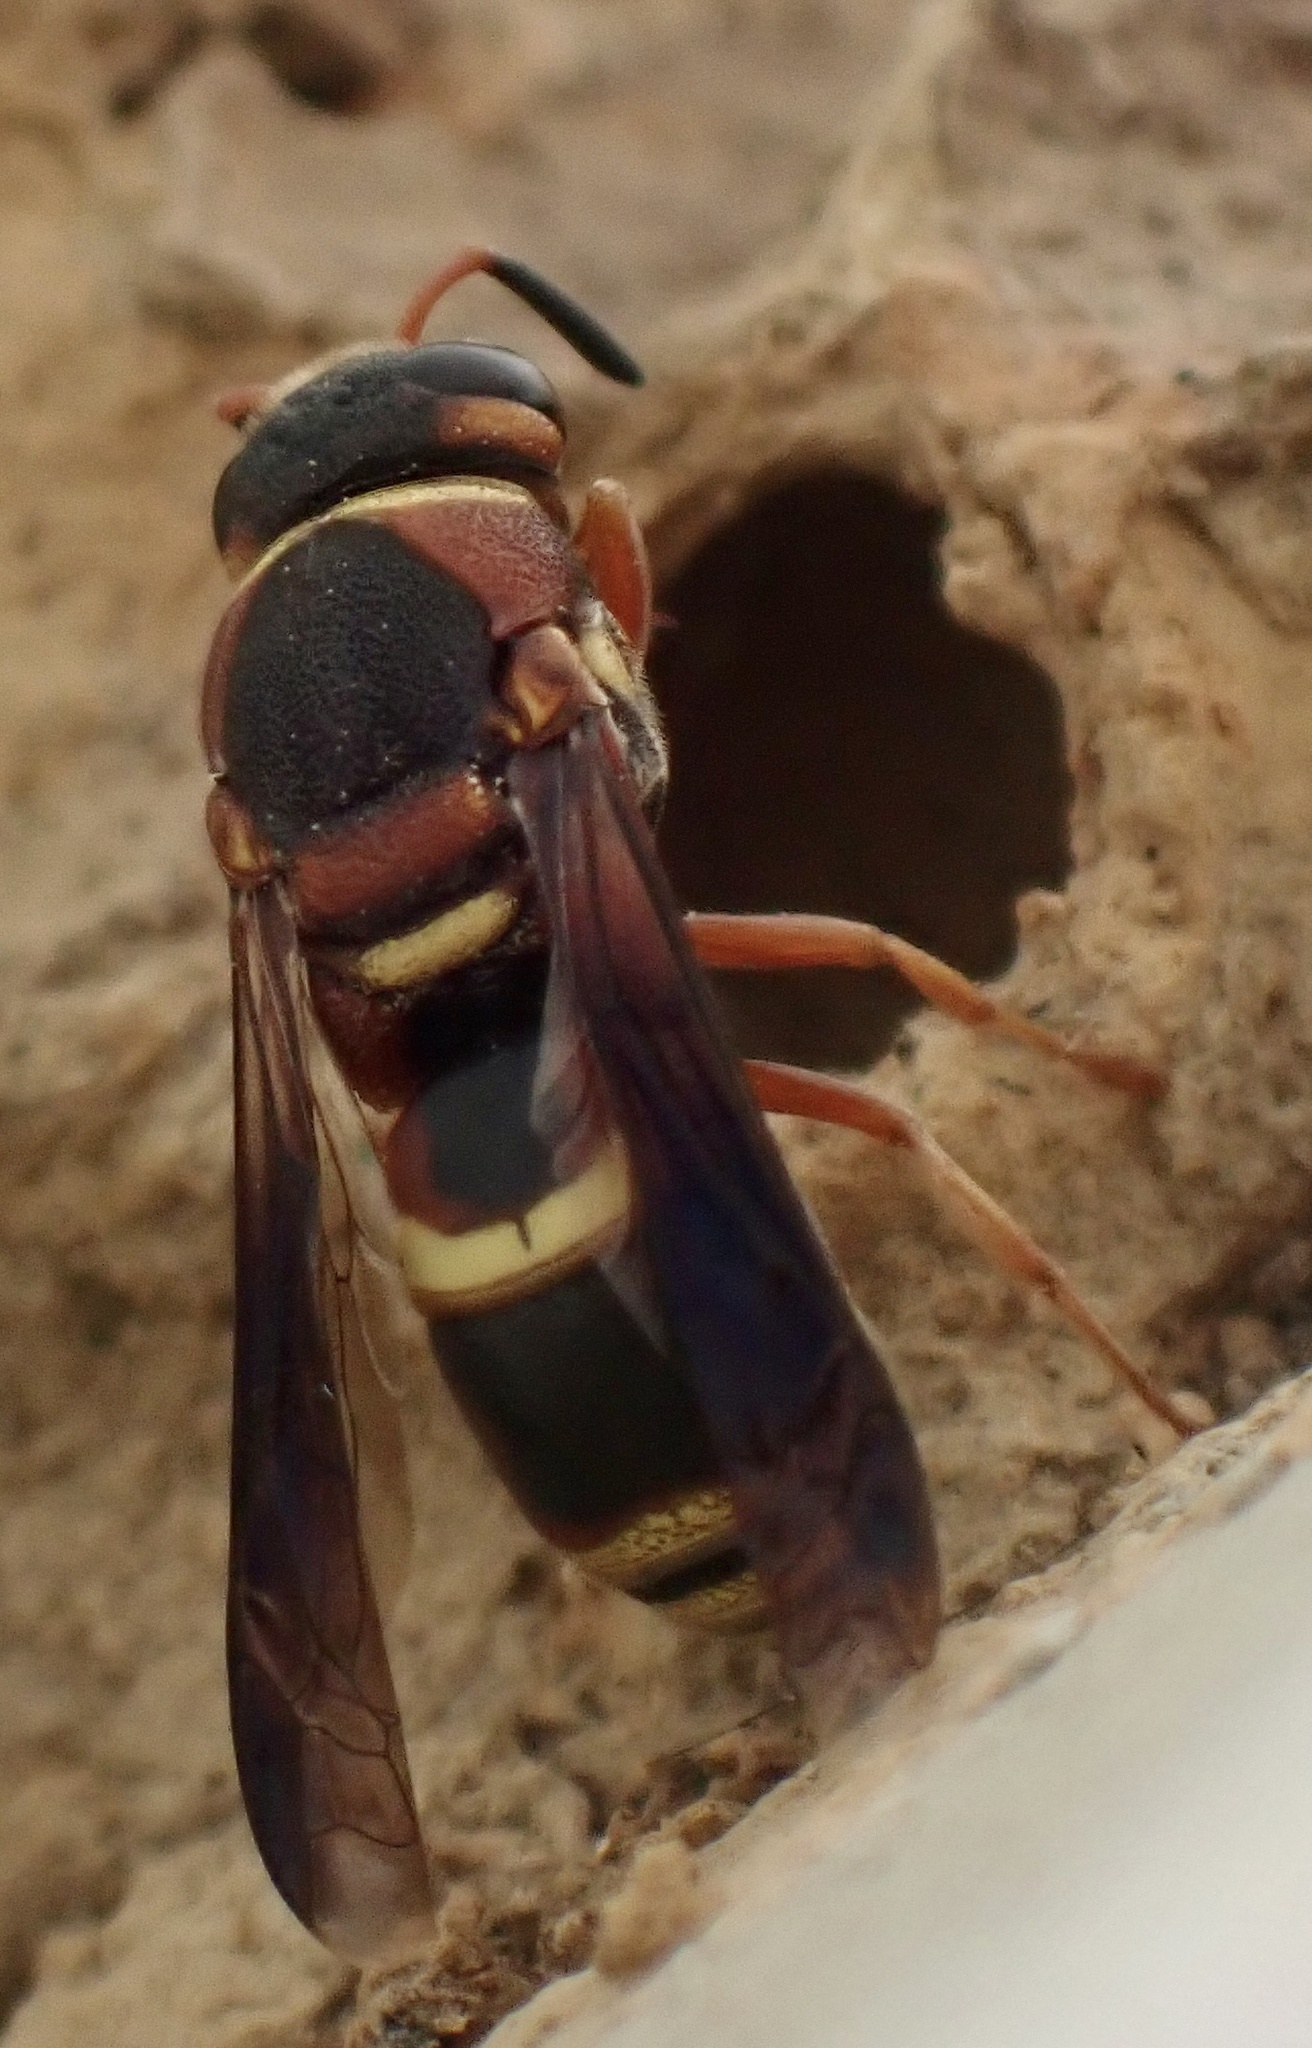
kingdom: Animalia
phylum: Arthropoda
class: Insecta
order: Hymenoptera
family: Eumenidae
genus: Euodynerus
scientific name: Euodynerus hidalgo
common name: Wasp
